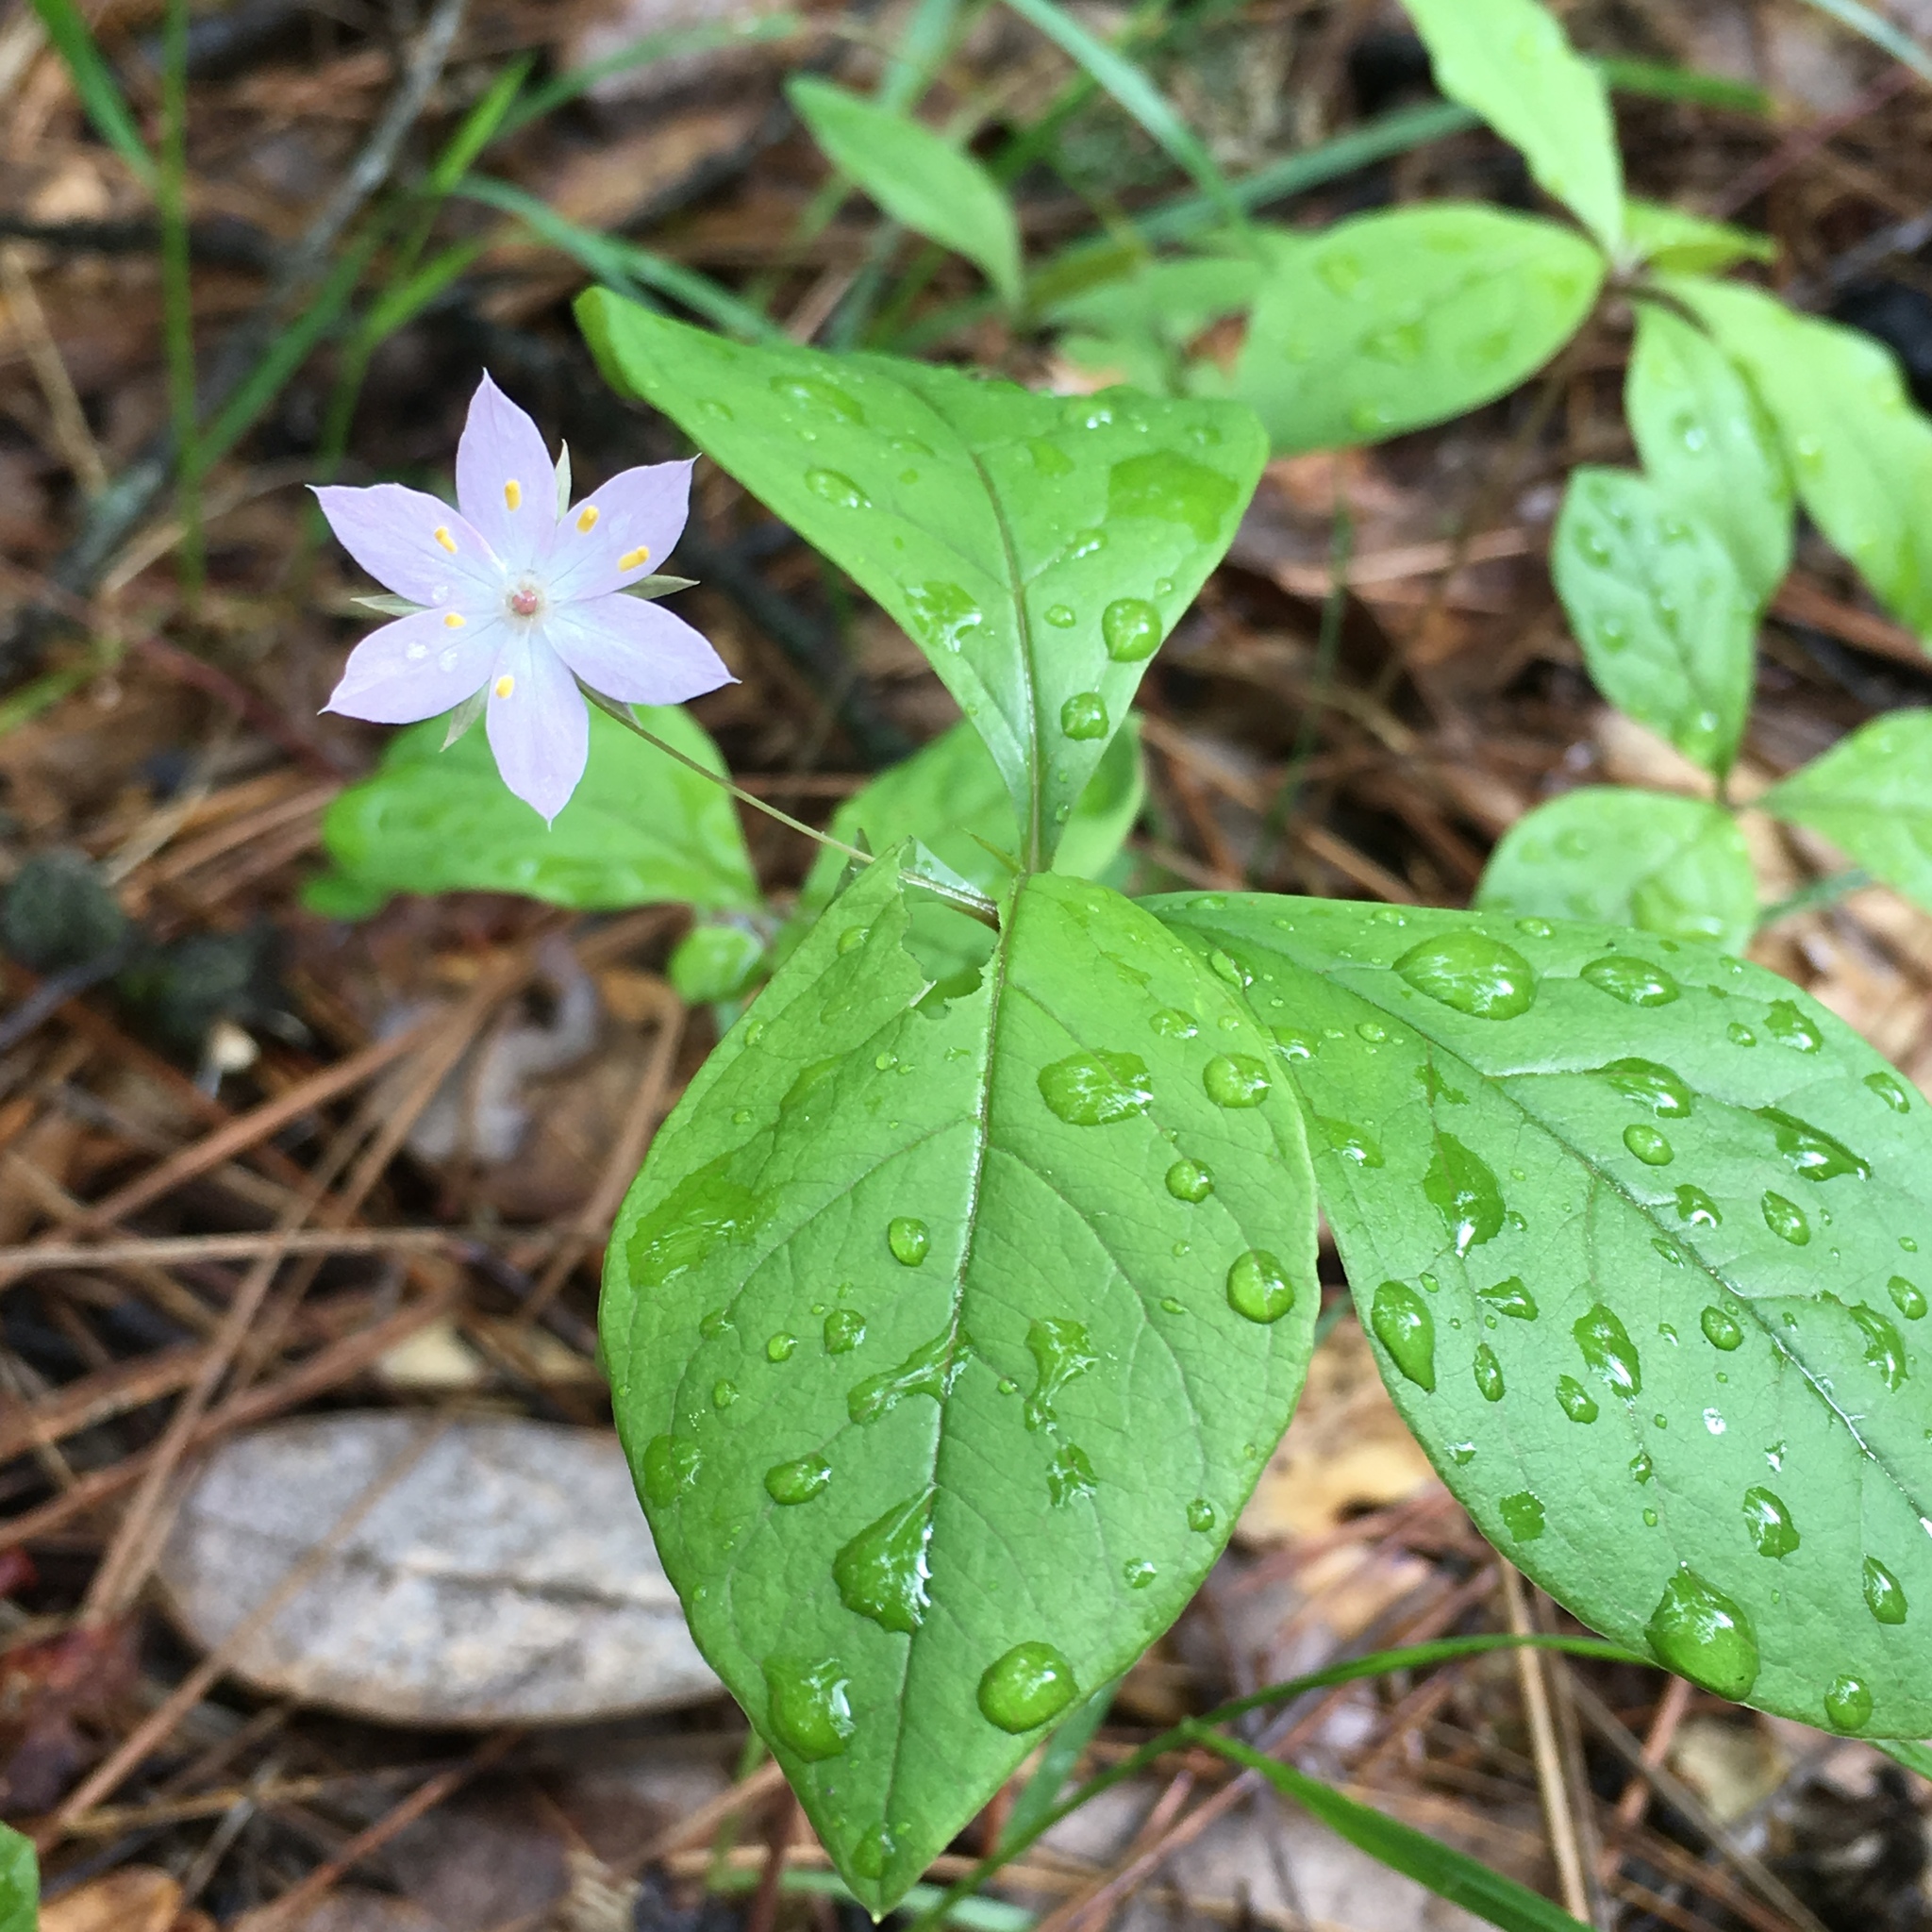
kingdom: Plantae
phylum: Tracheophyta
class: Magnoliopsida
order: Ericales
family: Primulaceae
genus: Lysimachia
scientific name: Lysimachia latifolia
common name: Pacific starflower
